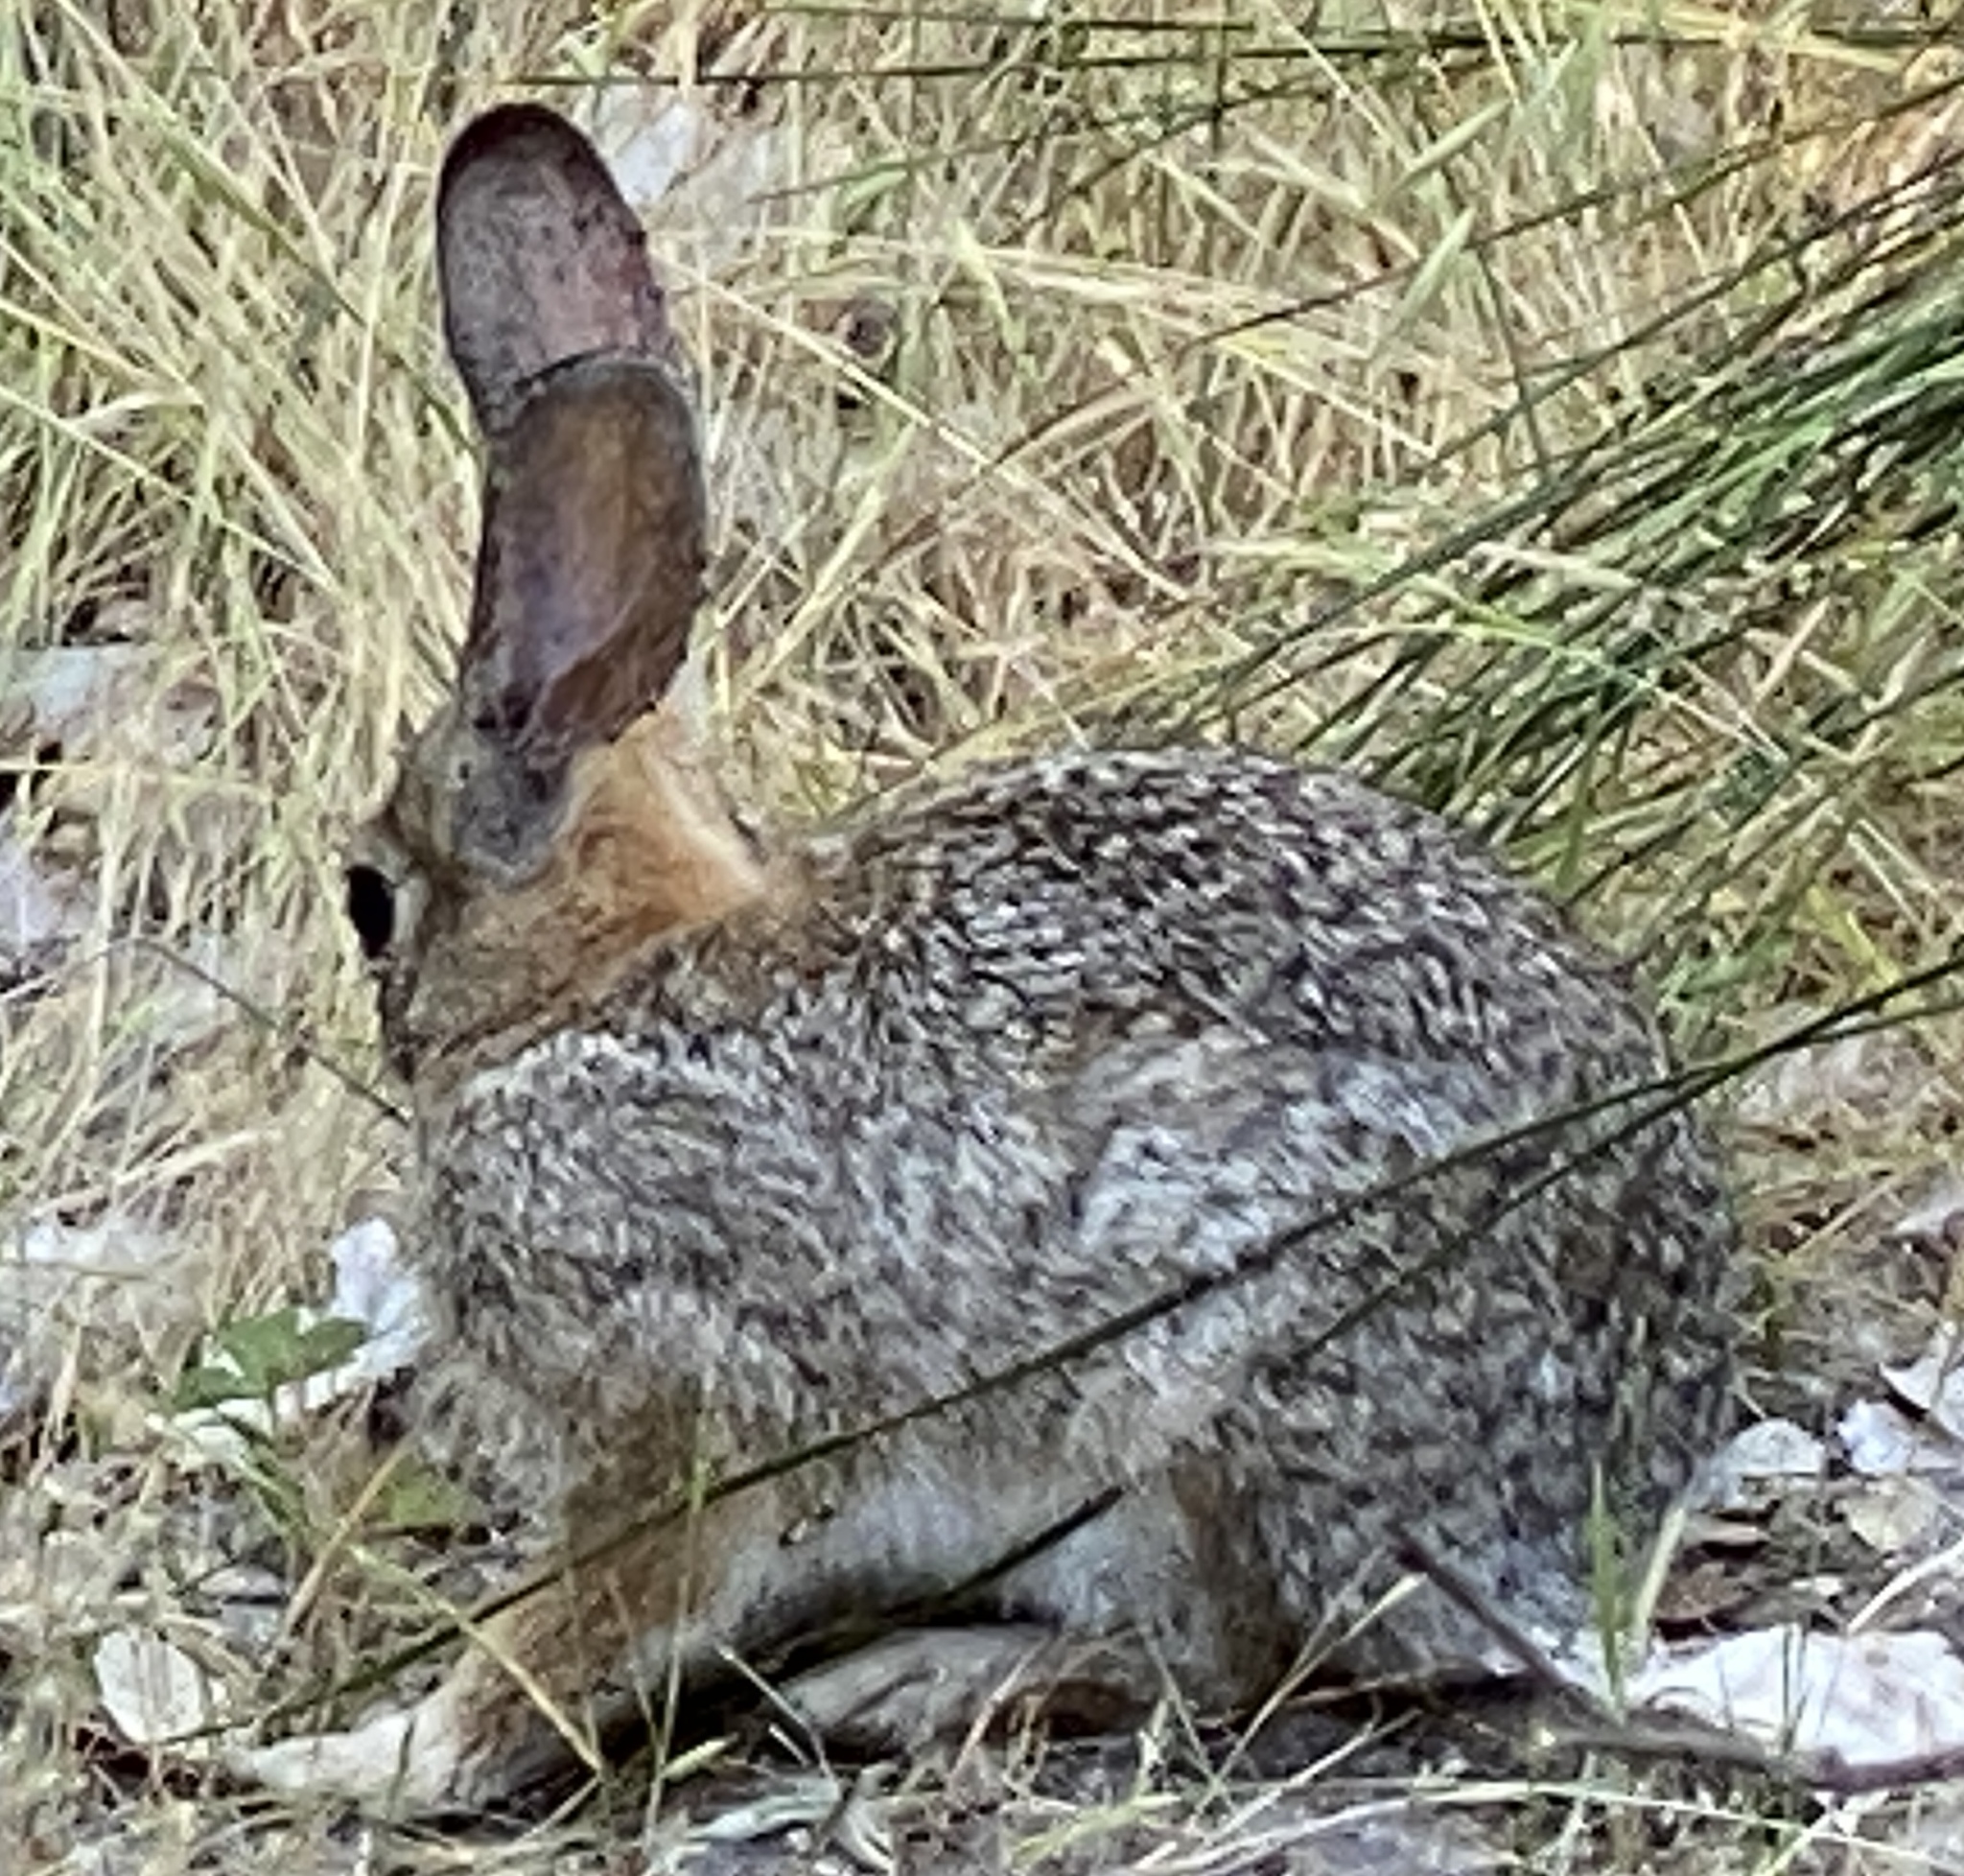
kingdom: Animalia
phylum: Chordata
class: Mammalia
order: Lagomorpha
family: Leporidae
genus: Sylvilagus
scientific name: Sylvilagus audubonii
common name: Desert cottontail
